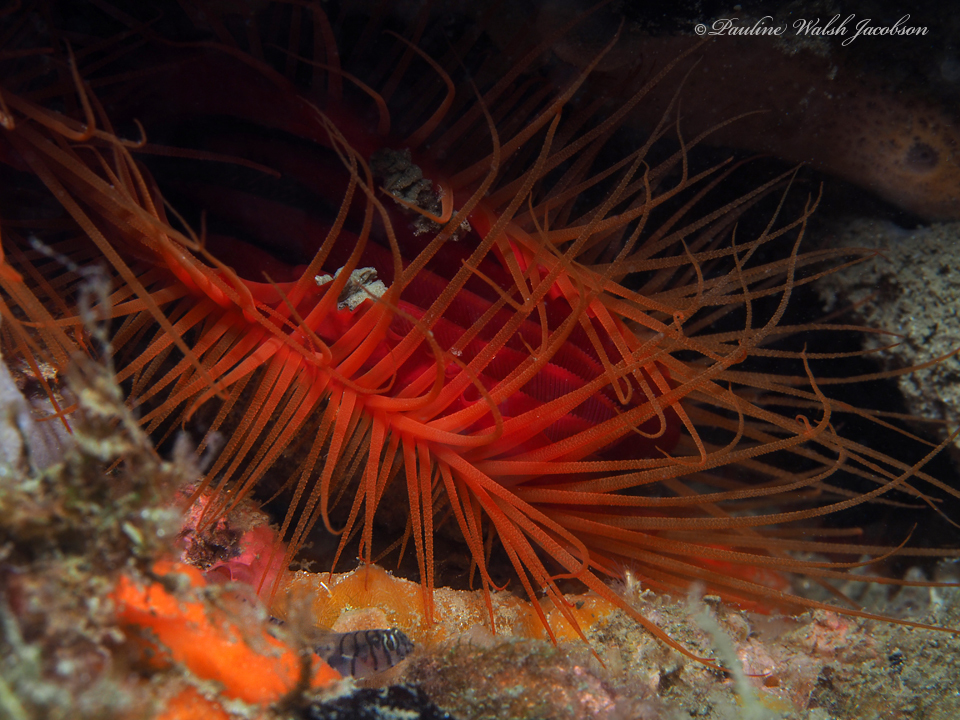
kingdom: Animalia
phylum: Mollusca
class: Bivalvia
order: Limida
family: Limidae
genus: Ctenoides
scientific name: Ctenoides scaber
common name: Rough fileclam
